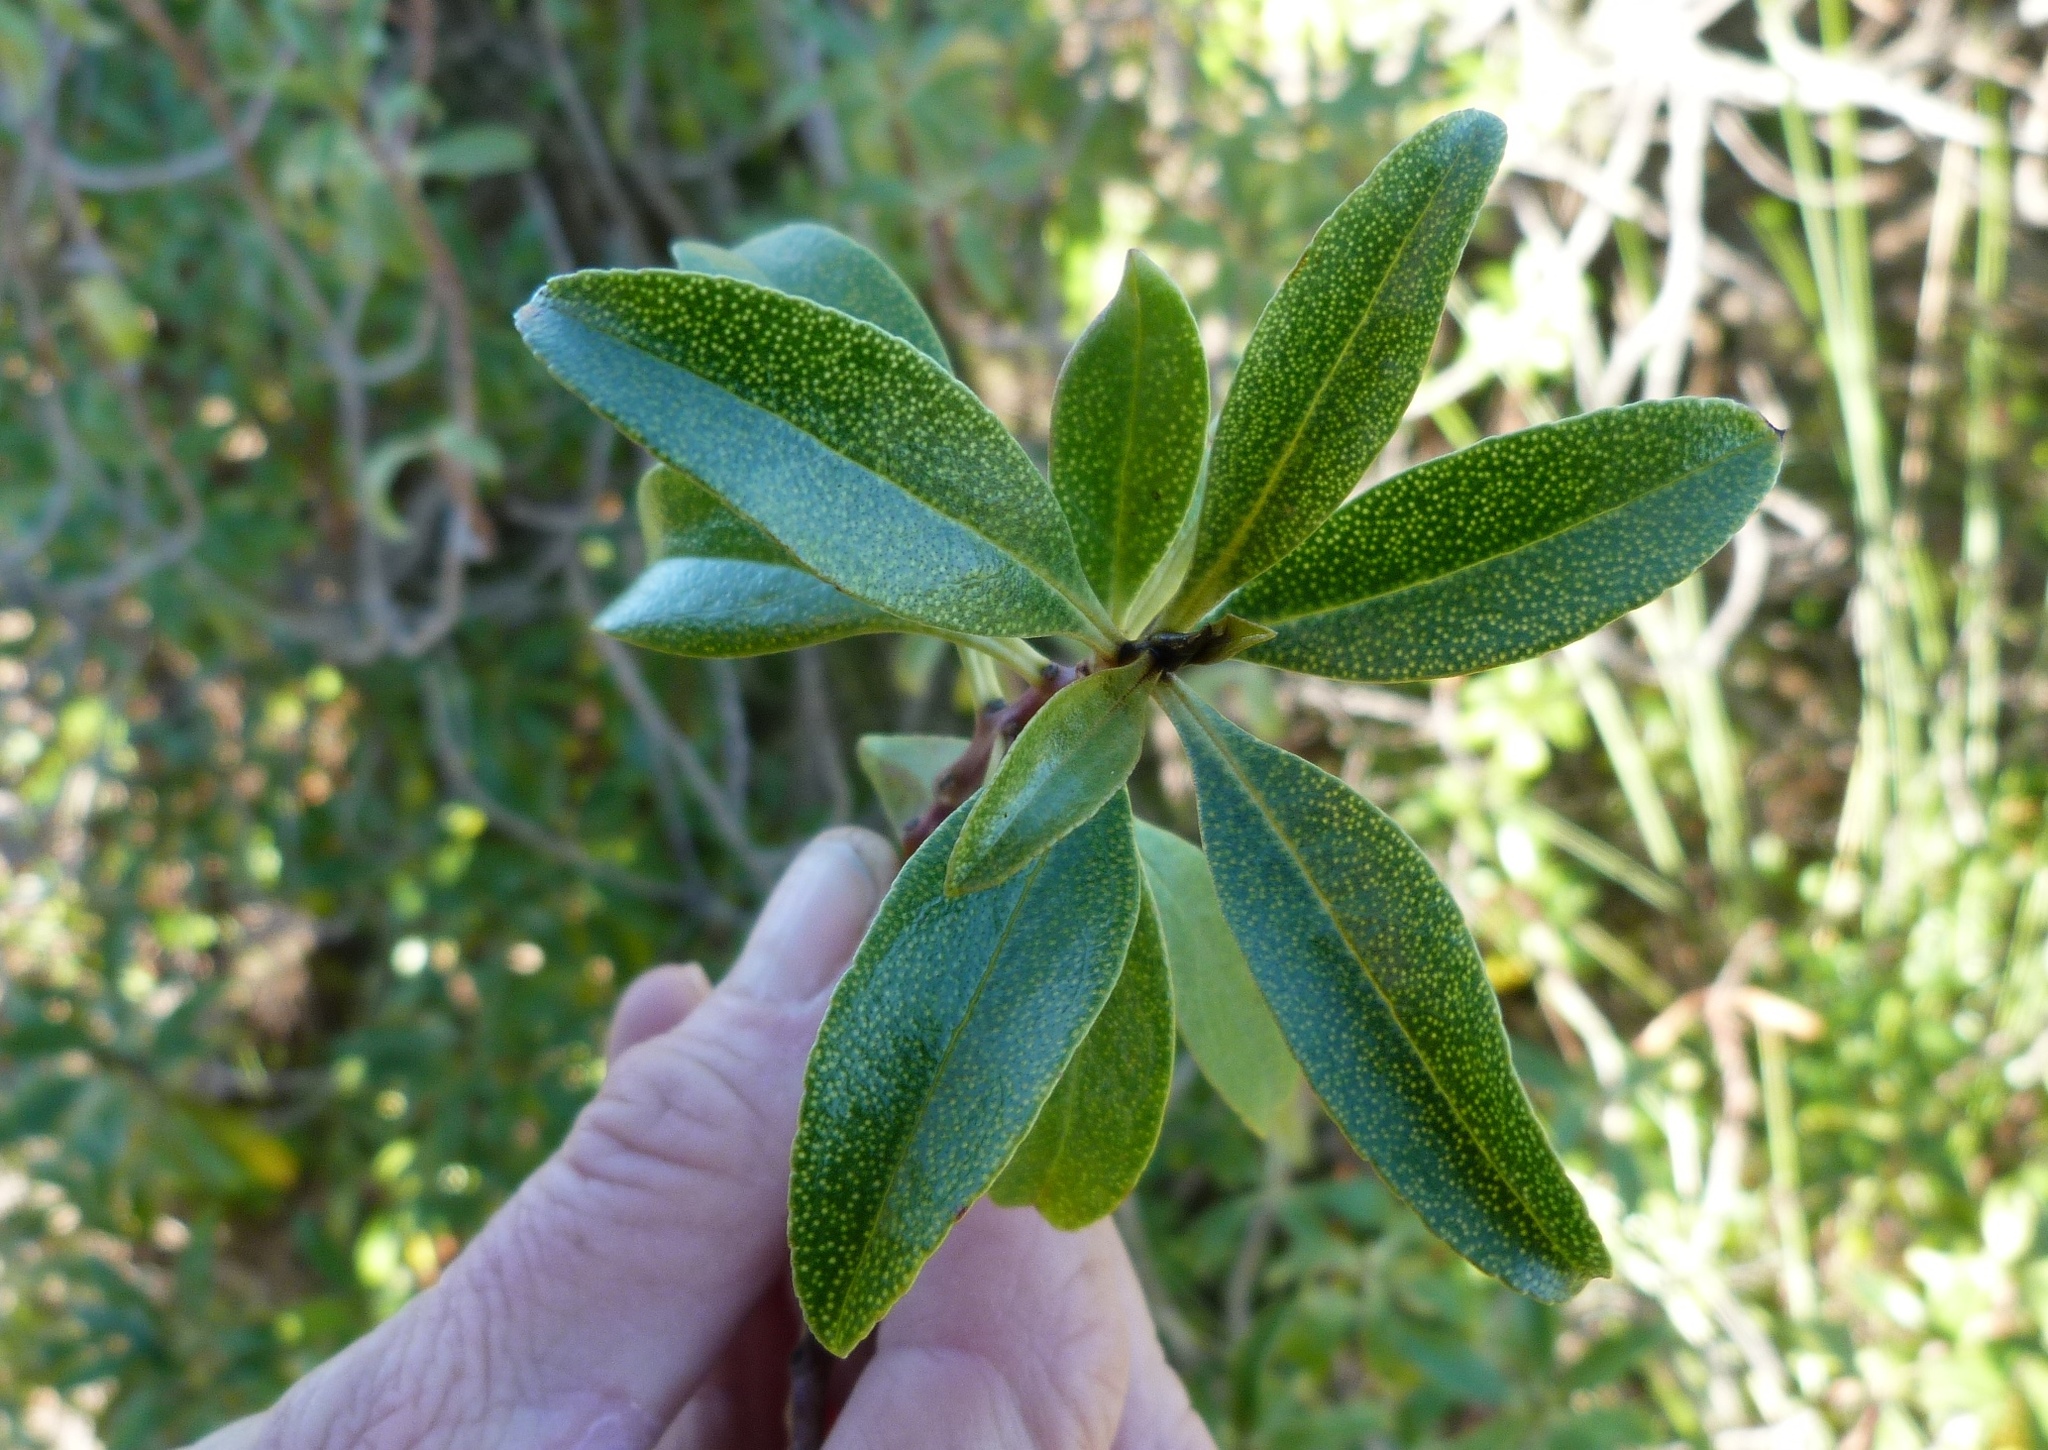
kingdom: Plantae
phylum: Tracheophyta
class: Magnoliopsida
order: Lamiales
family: Scrophulariaceae
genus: Myoporum
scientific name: Myoporum laetum
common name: Ngaio tree
